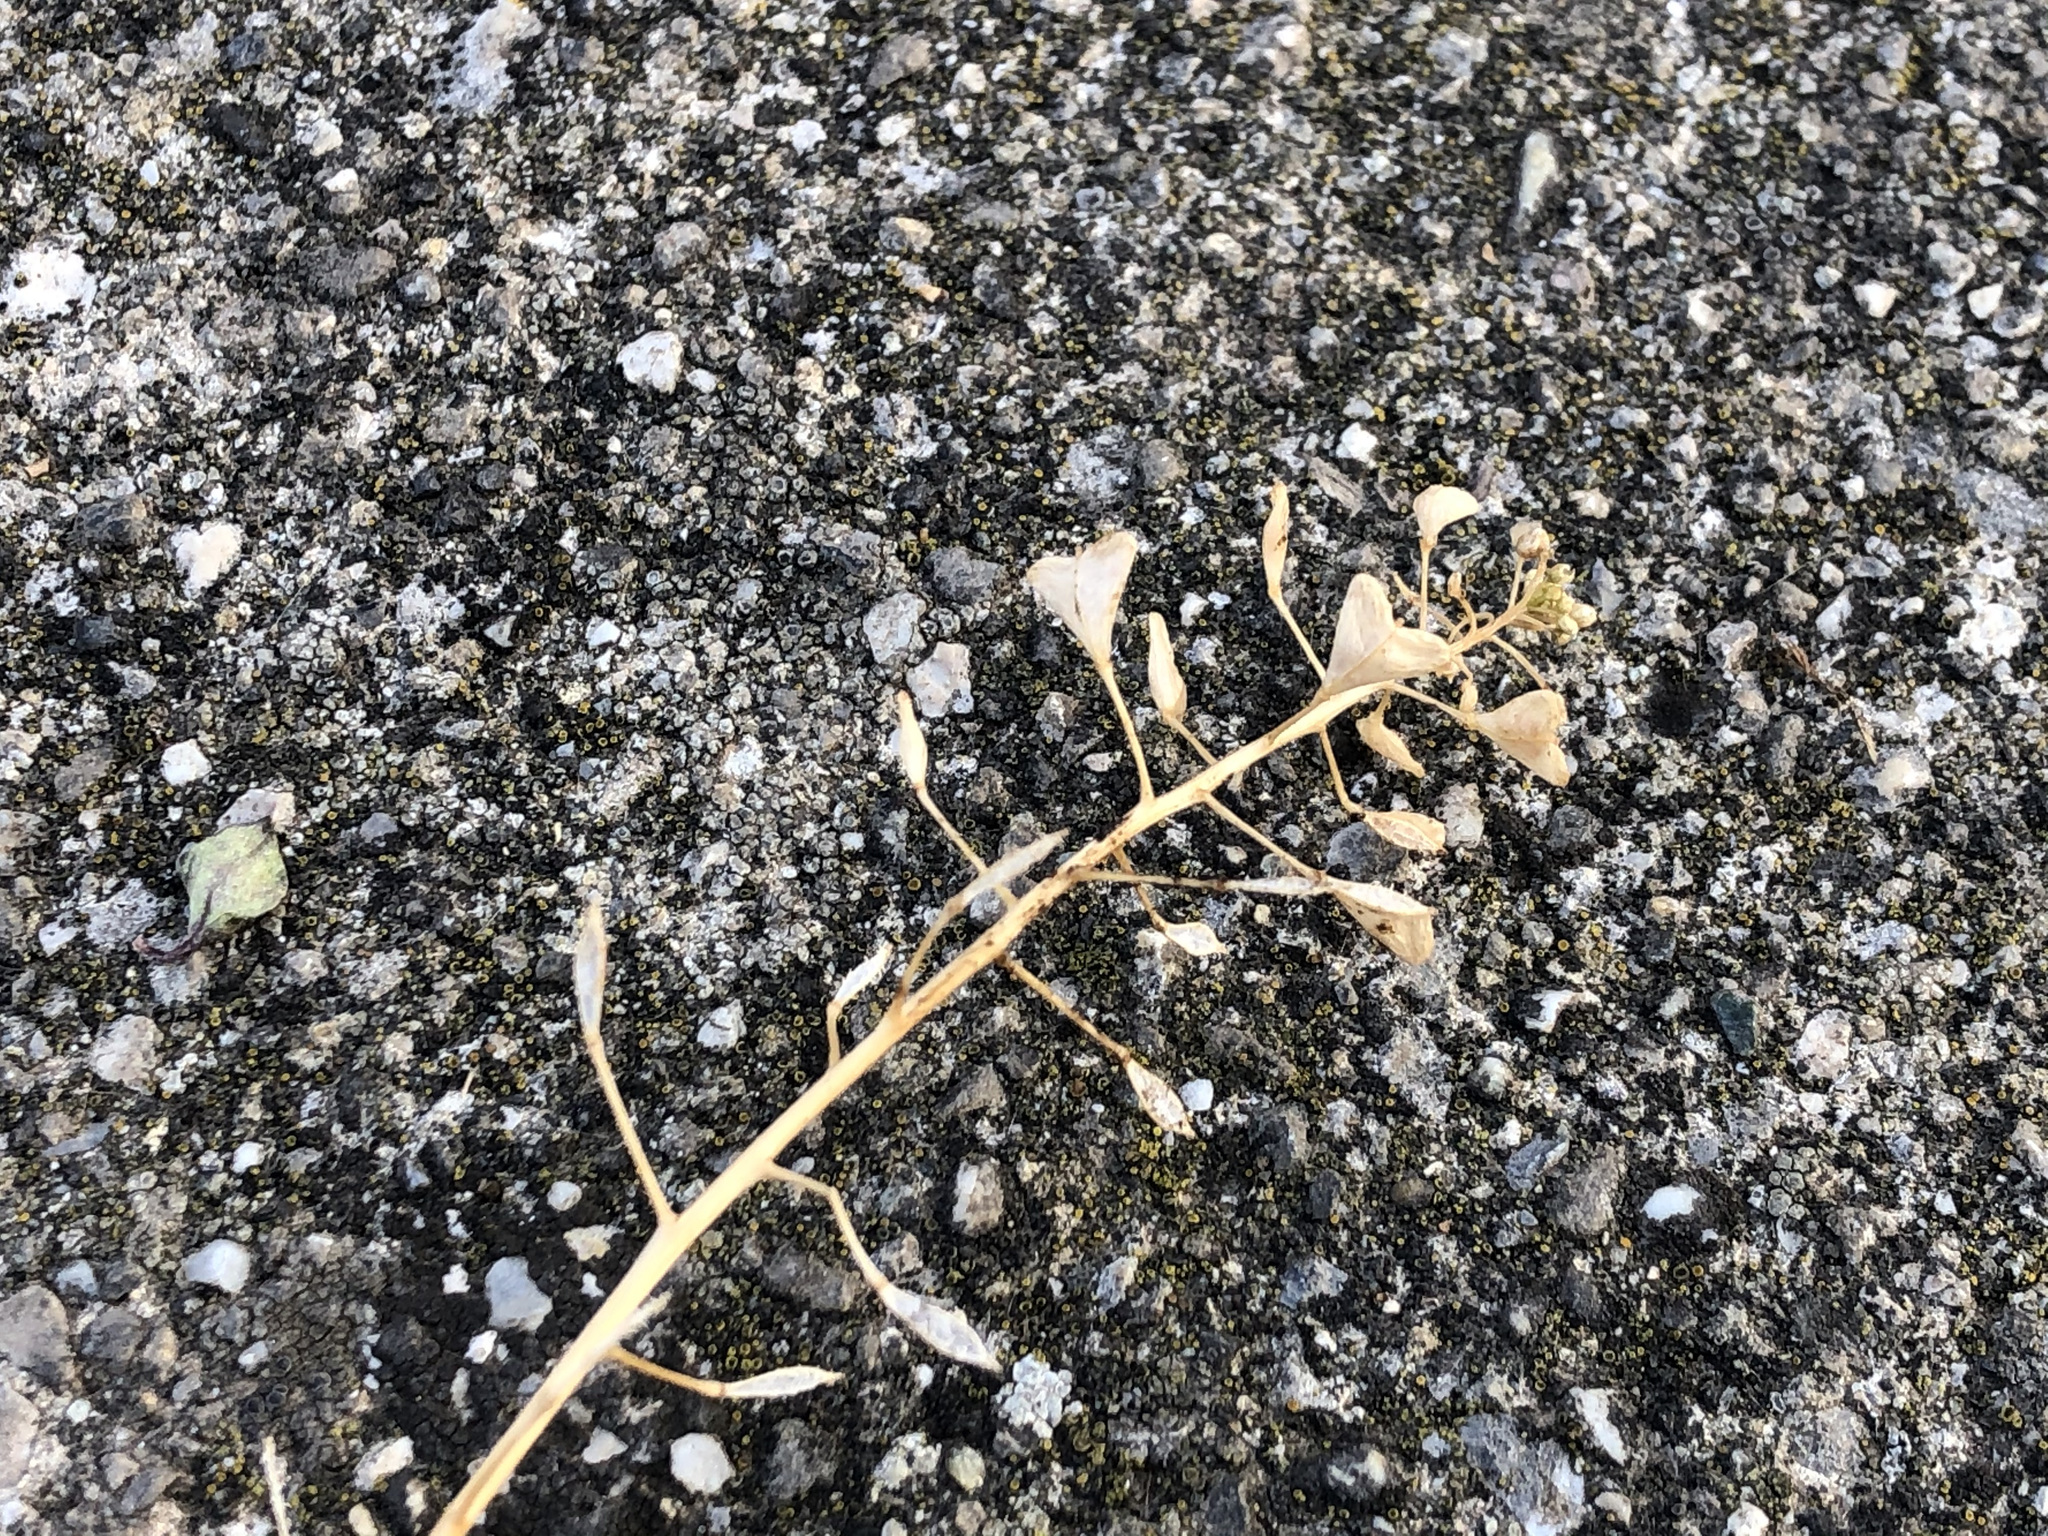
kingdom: Plantae
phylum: Tracheophyta
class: Magnoliopsida
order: Brassicales
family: Brassicaceae
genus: Capsella
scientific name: Capsella bursa-pastoris
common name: Shepherd's purse
